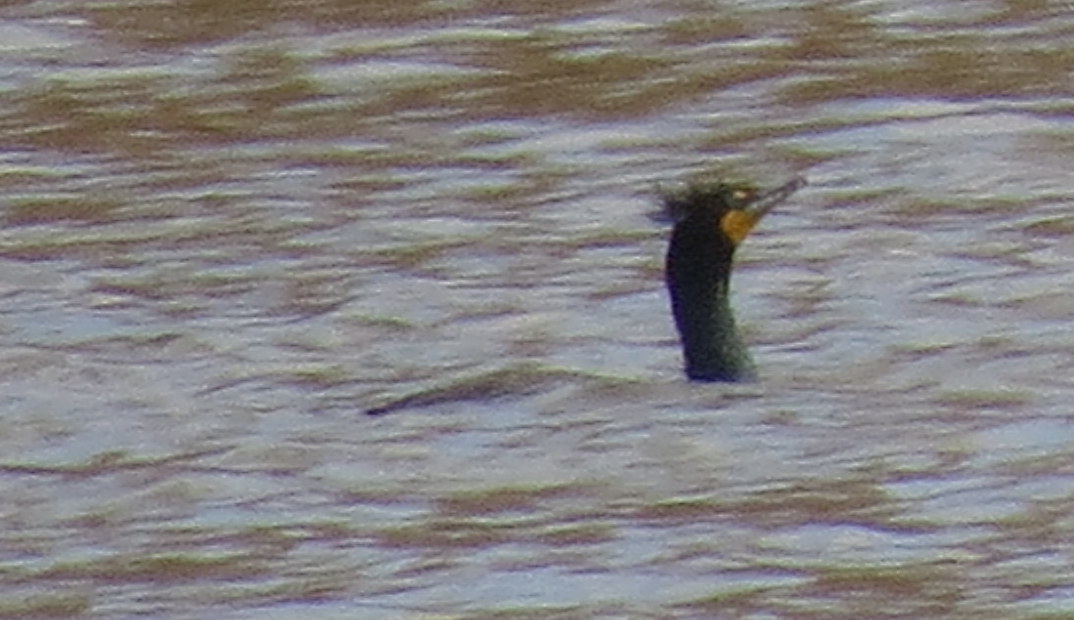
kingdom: Animalia
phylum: Chordata
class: Aves
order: Suliformes
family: Phalacrocoracidae
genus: Phalacrocorax
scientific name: Phalacrocorax auritus
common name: Double-crested cormorant
